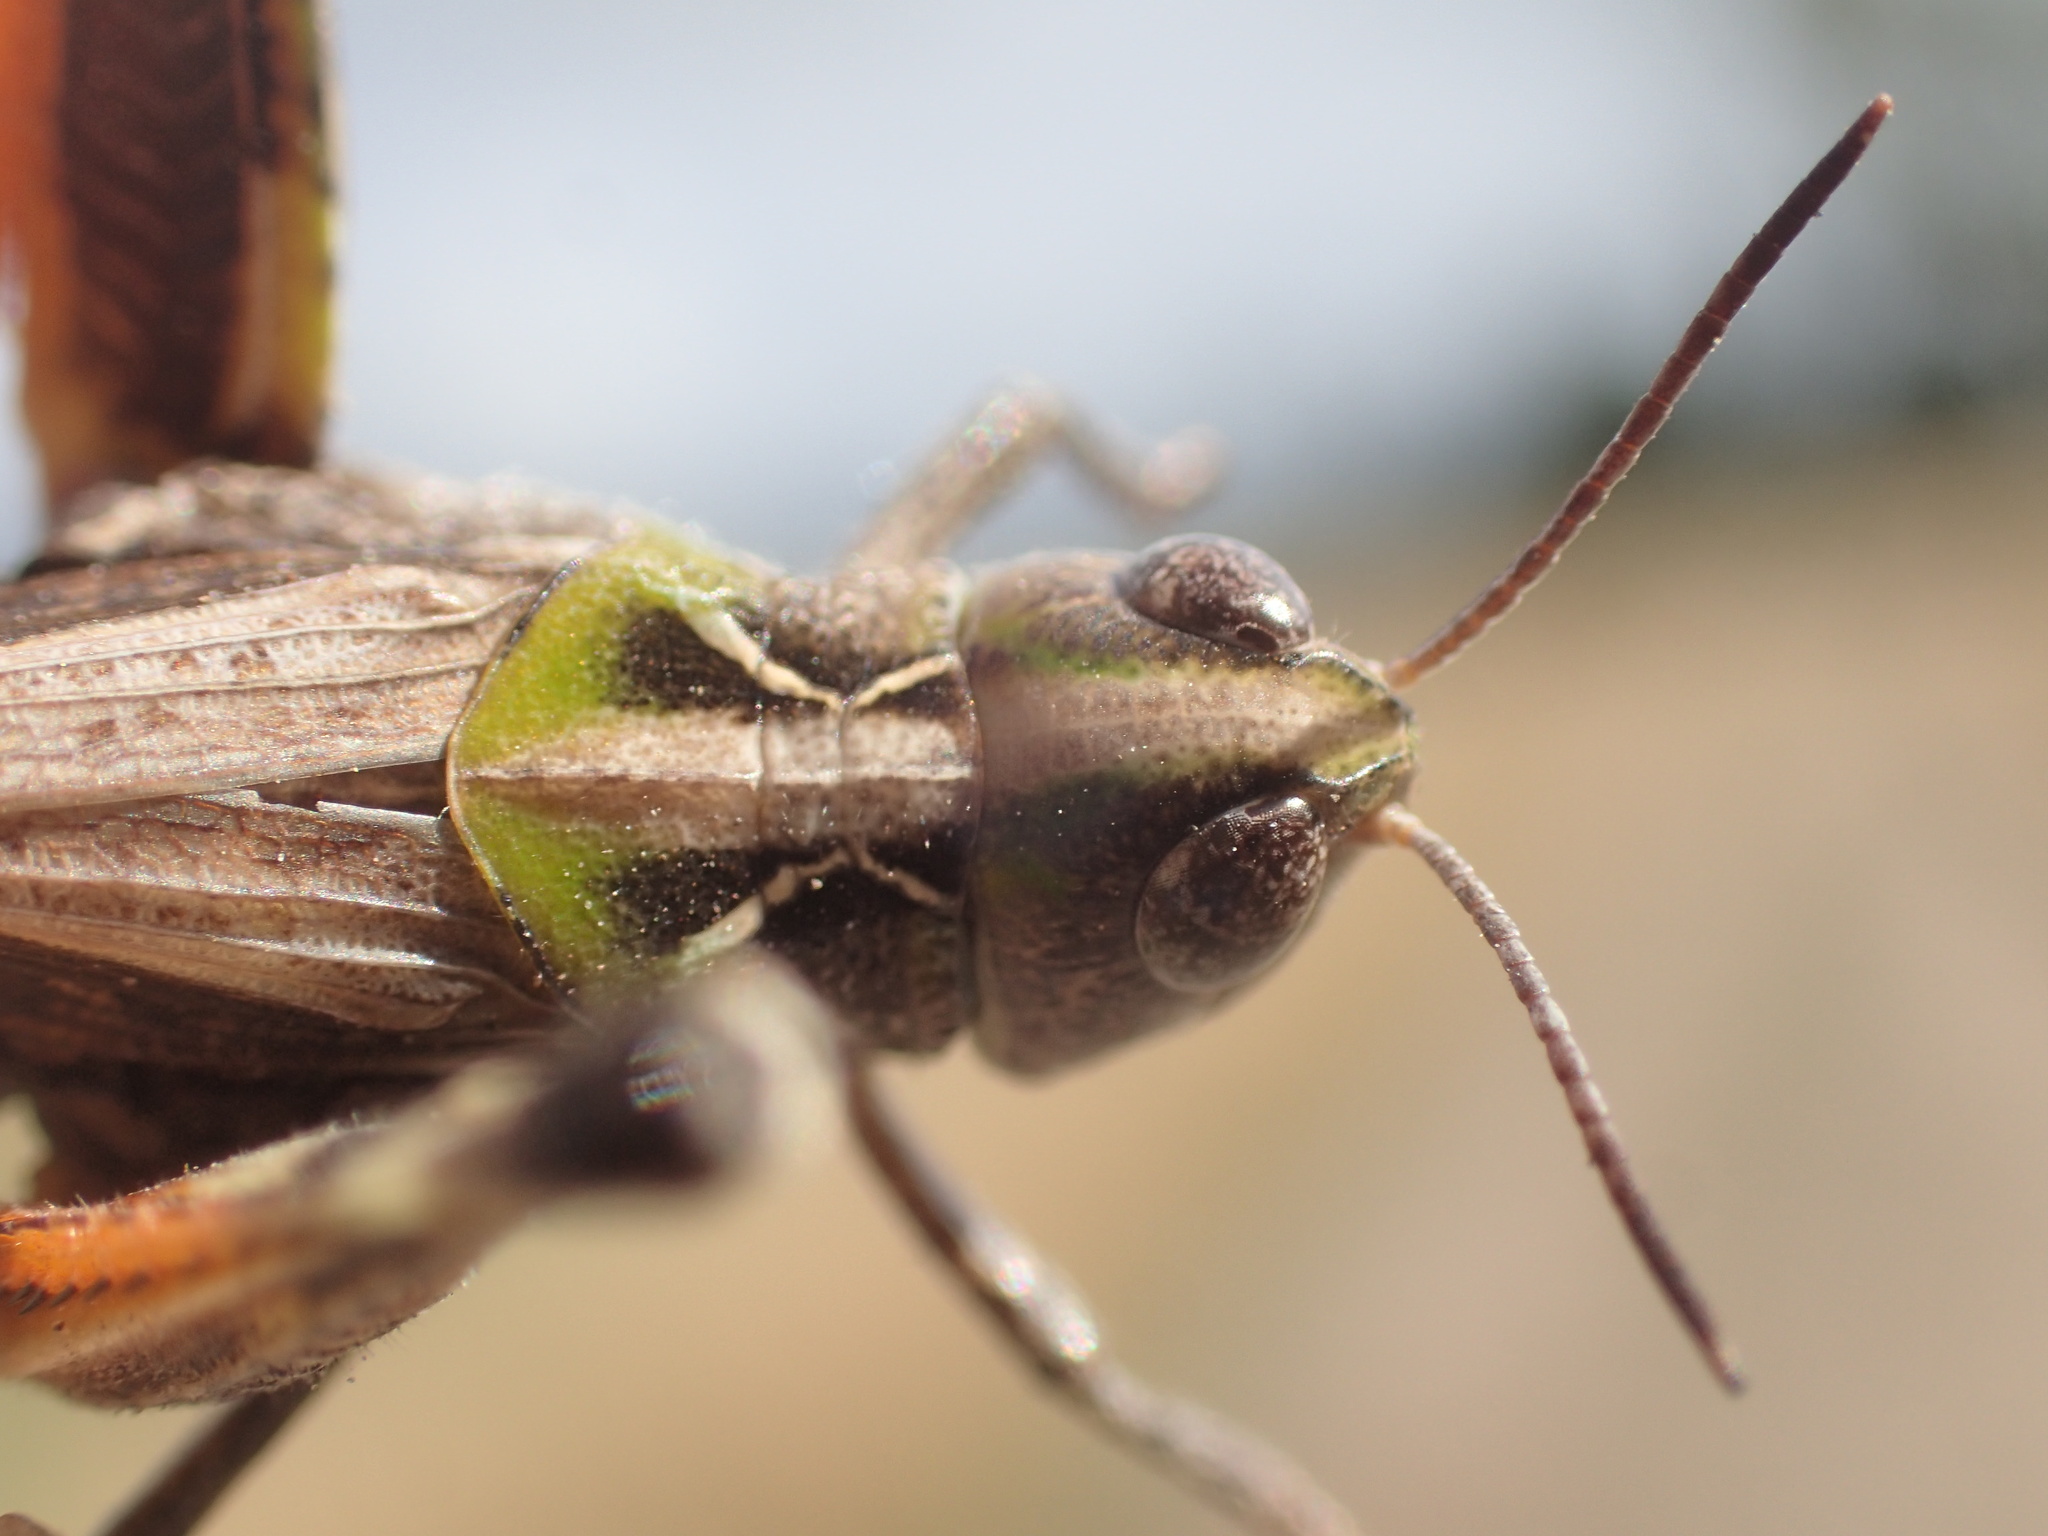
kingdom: Animalia
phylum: Arthropoda
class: Insecta
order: Orthoptera
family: Acrididae
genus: Austroicetes
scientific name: Austroicetes vulgaris
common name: Southeastern austroicetes
